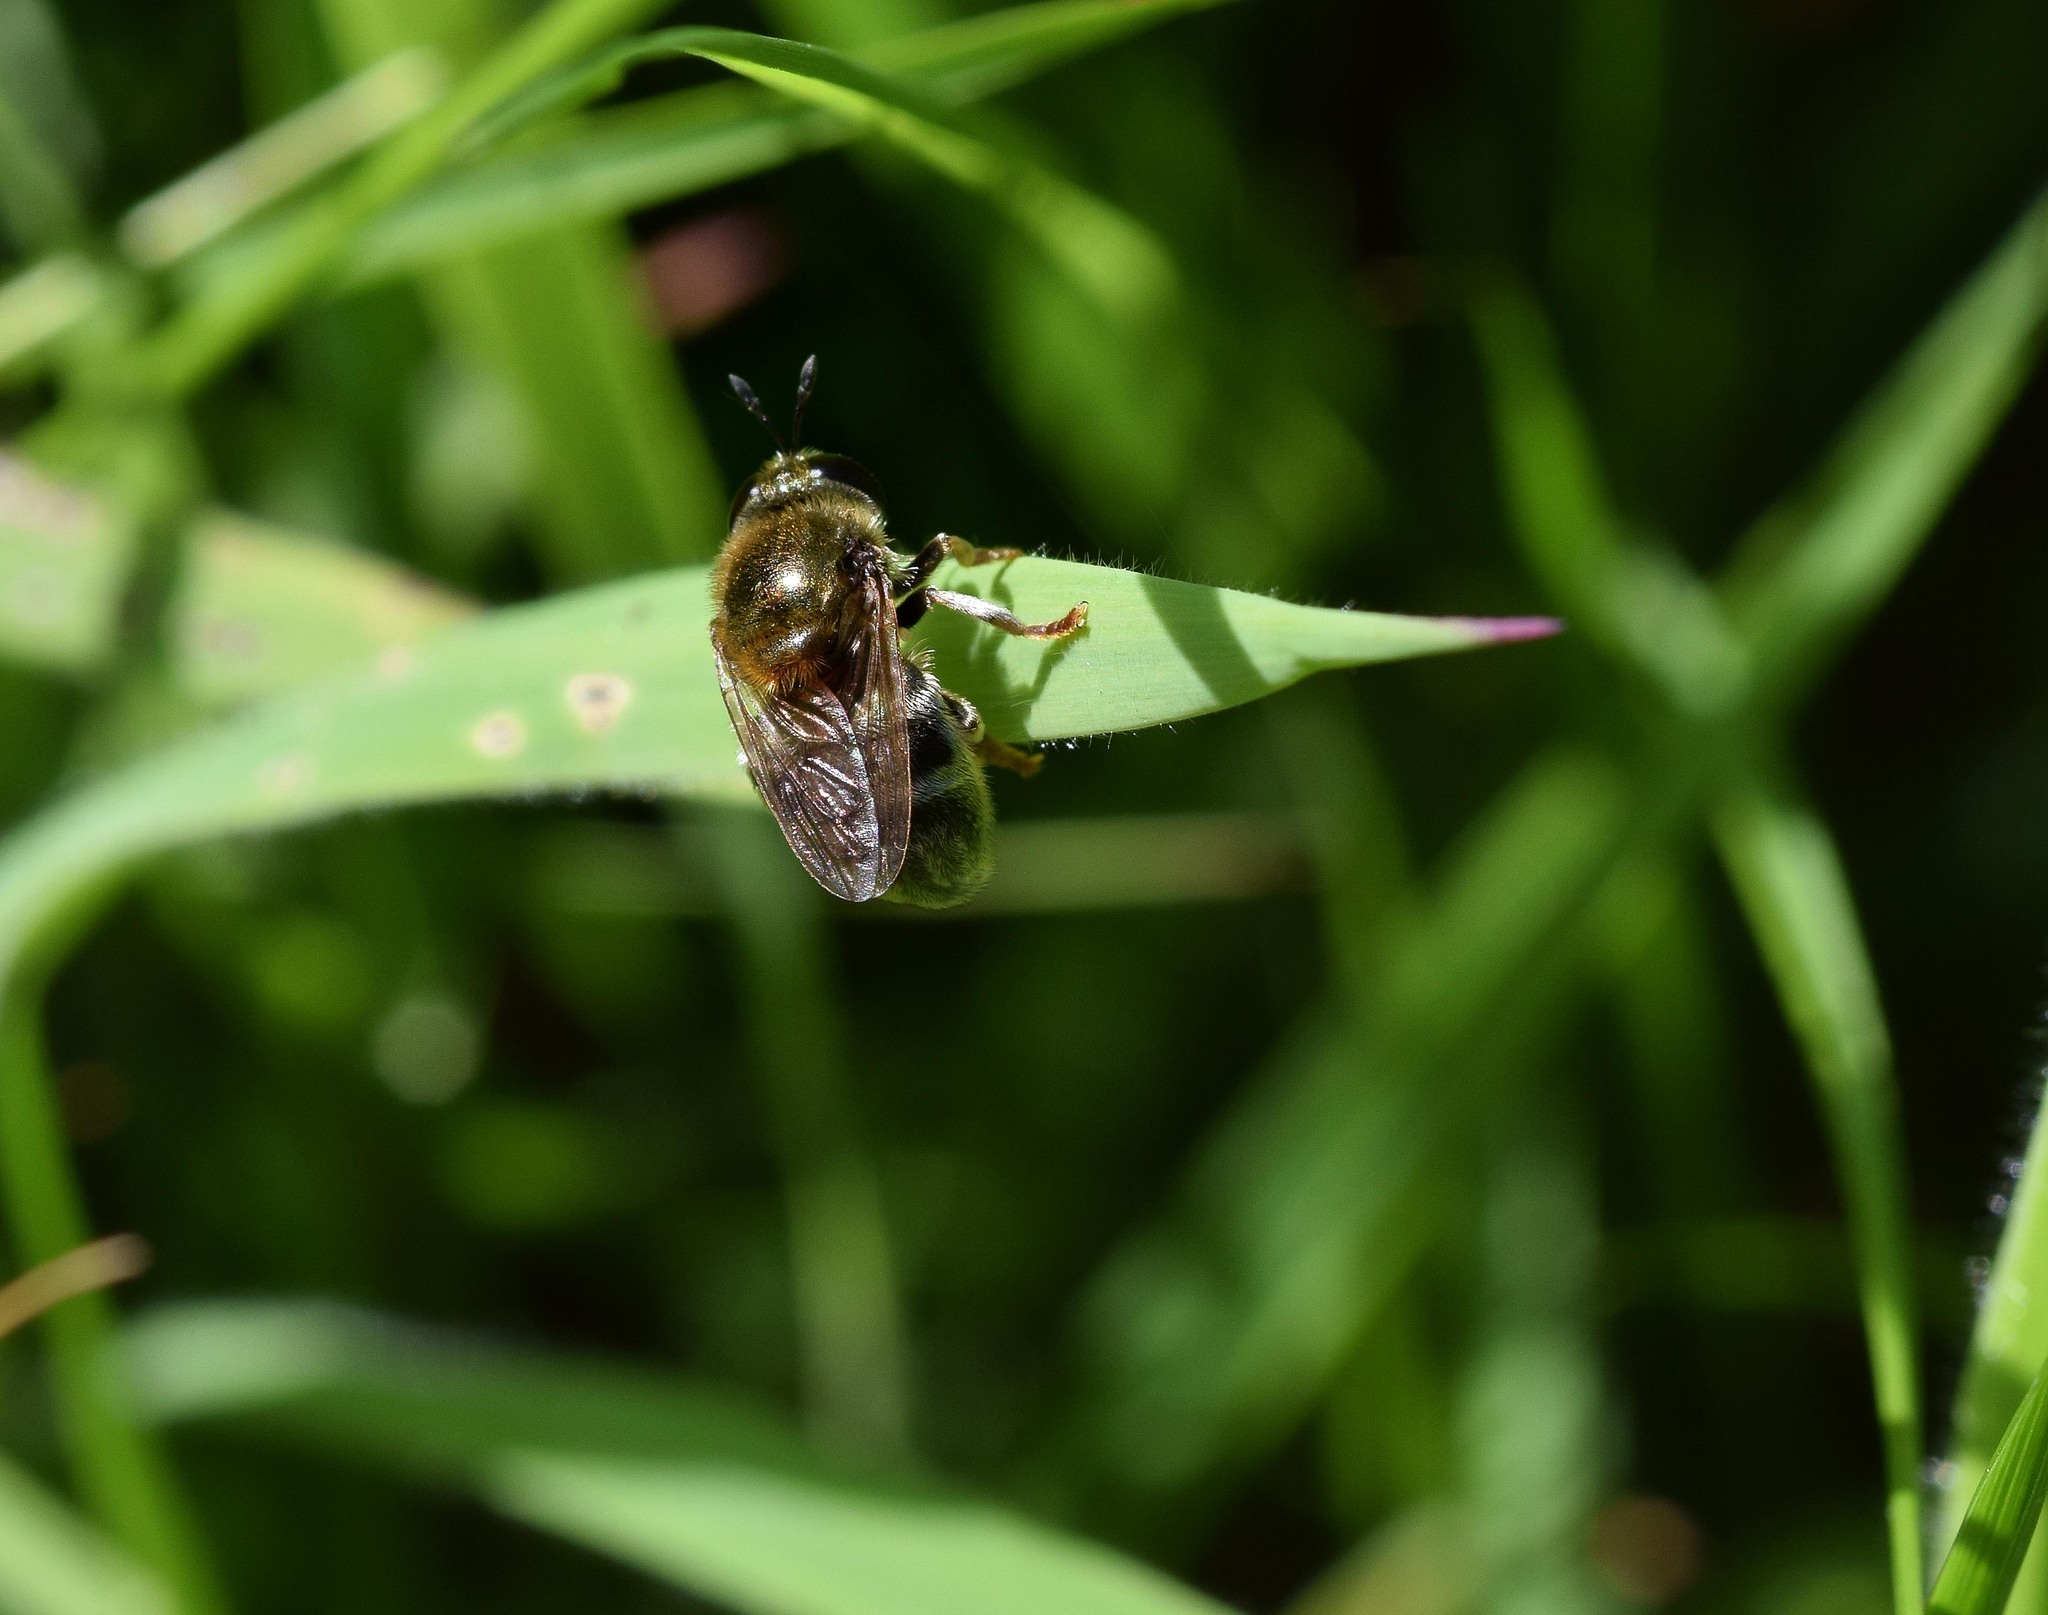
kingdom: Animalia
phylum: Arthropoda
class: Insecta
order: Diptera
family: Syrphidae
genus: Microdon
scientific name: Microdon
